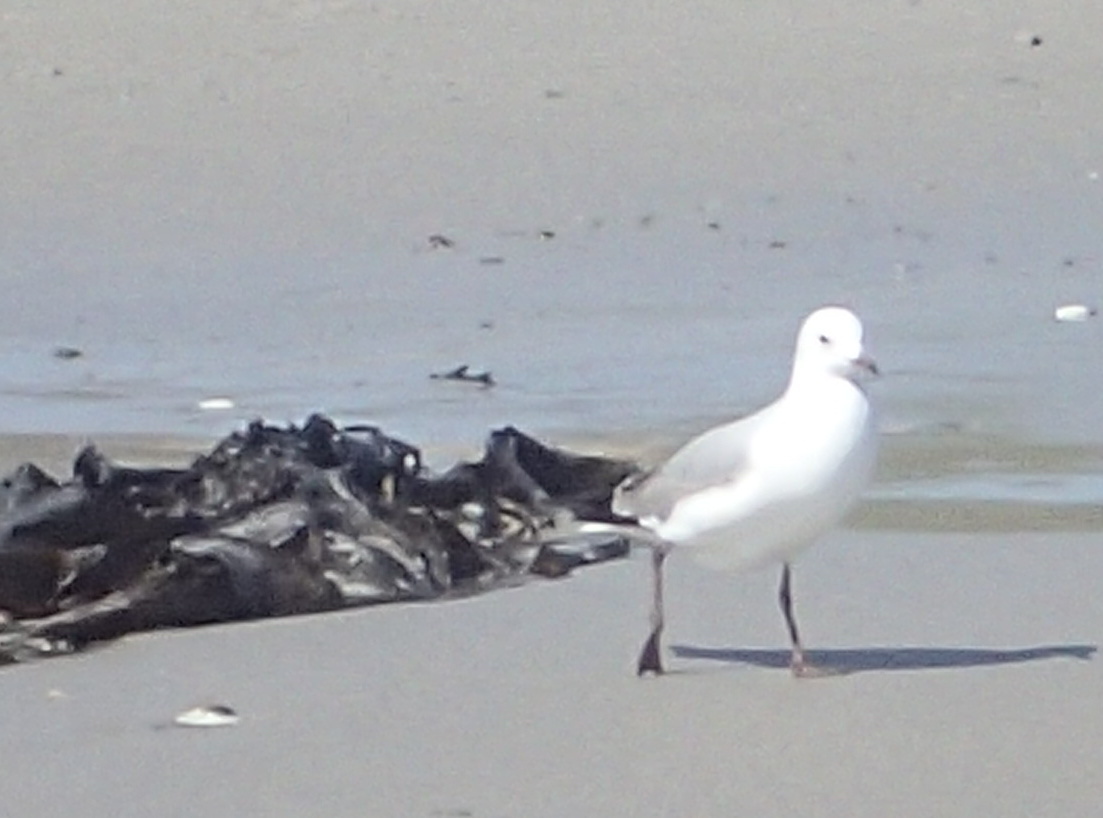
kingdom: Animalia
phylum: Chordata
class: Aves
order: Charadriiformes
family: Laridae
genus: Chroicocephalus
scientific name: Chroicocephalus hartlaubii
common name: Hartlaub's gull
